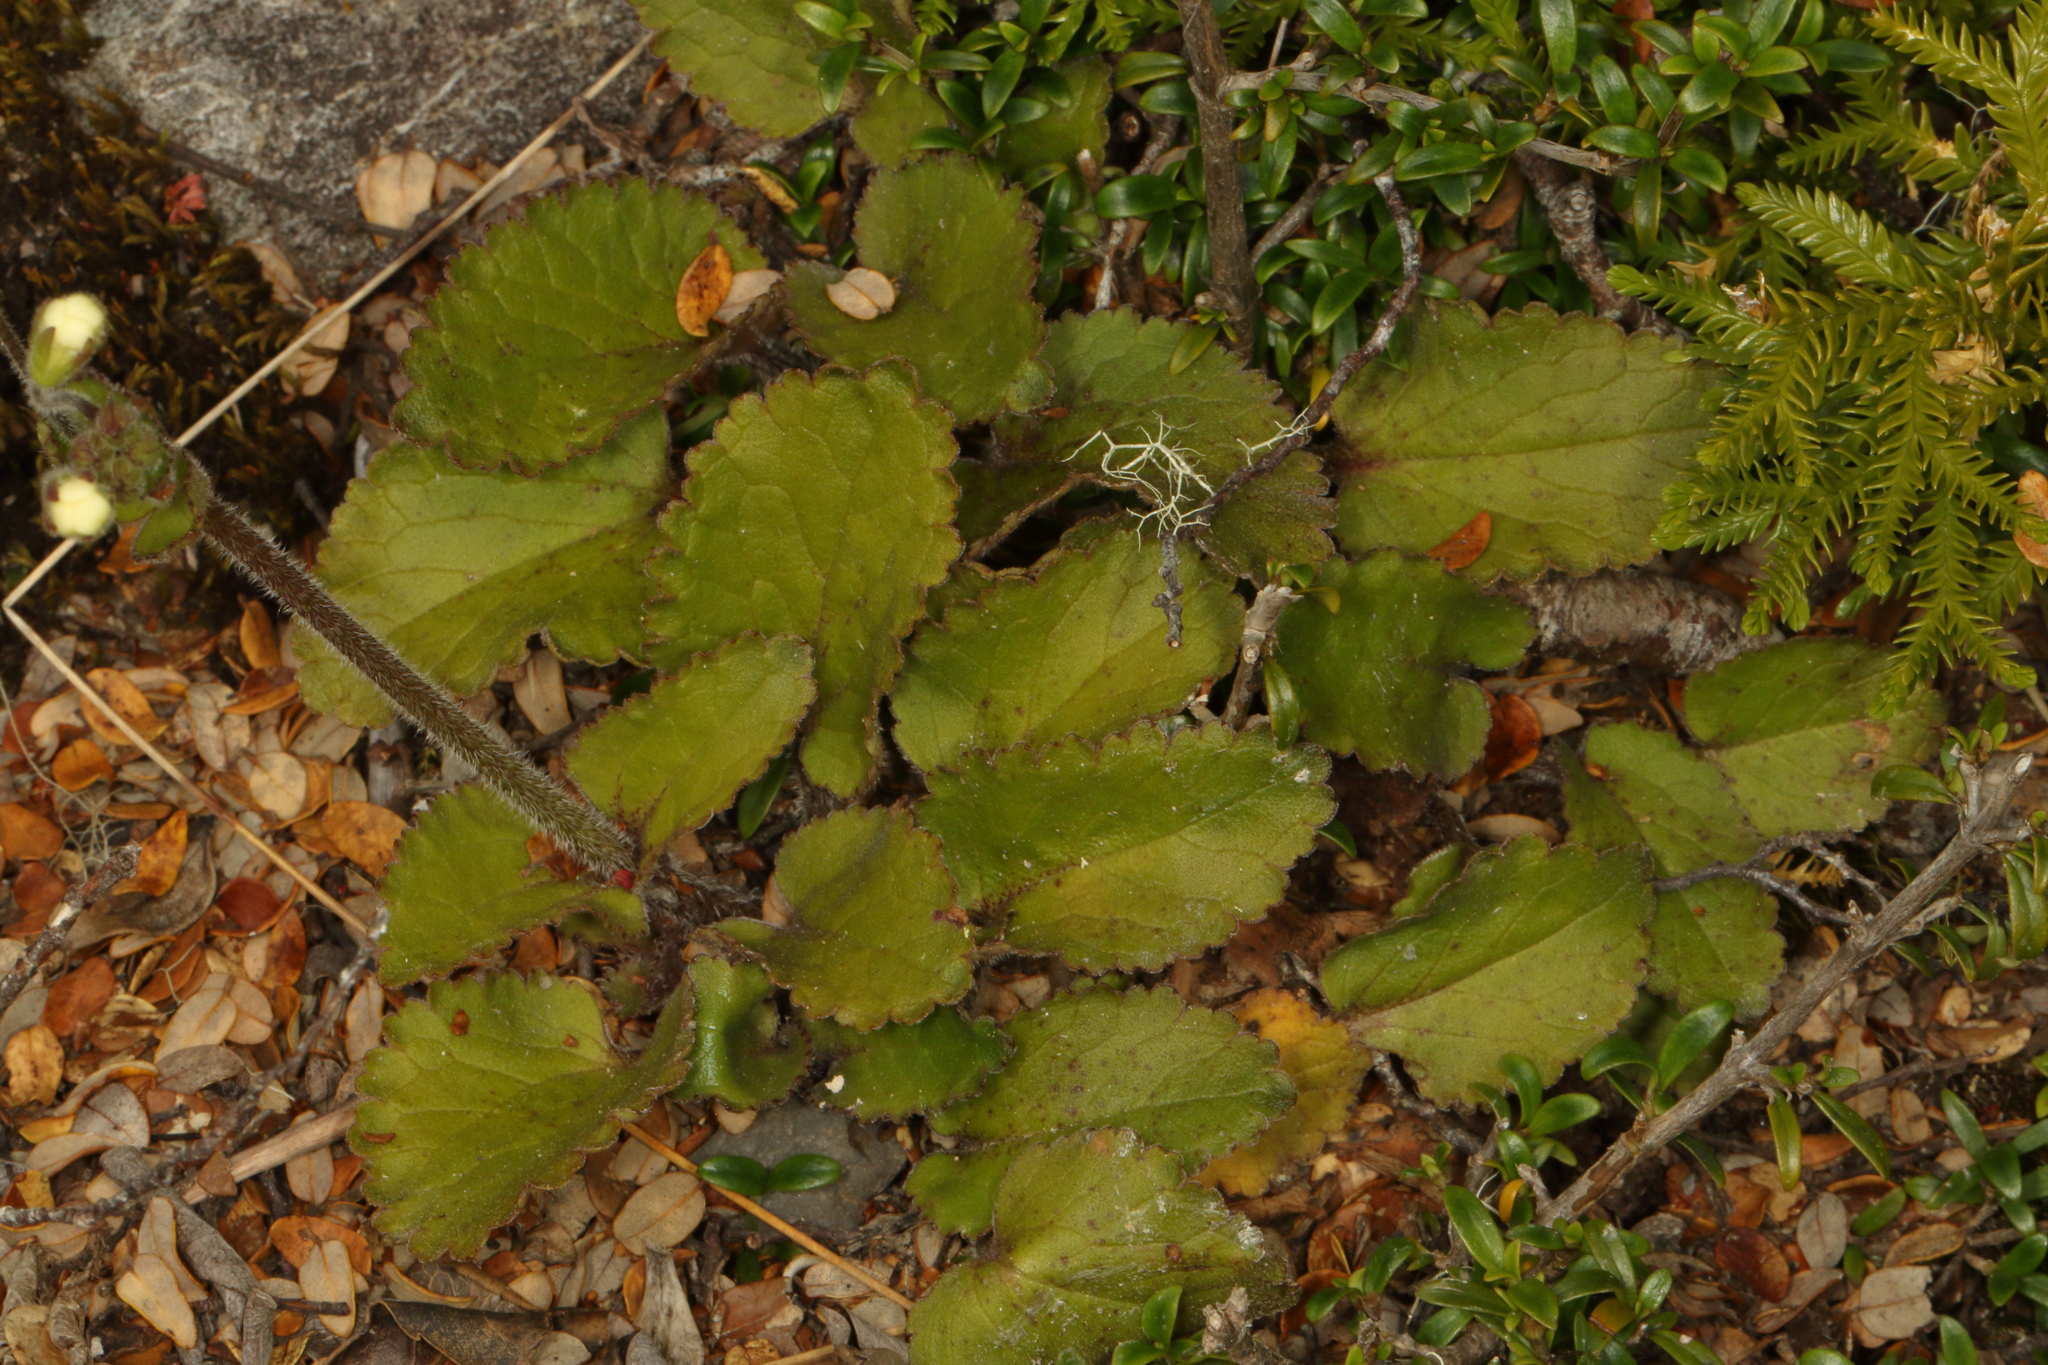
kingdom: Plantae
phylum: Tracheophyta
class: Magnoliopsida
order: Lamiales
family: Plantaginaceae
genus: Ourisia
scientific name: Ourisia macrophylla
